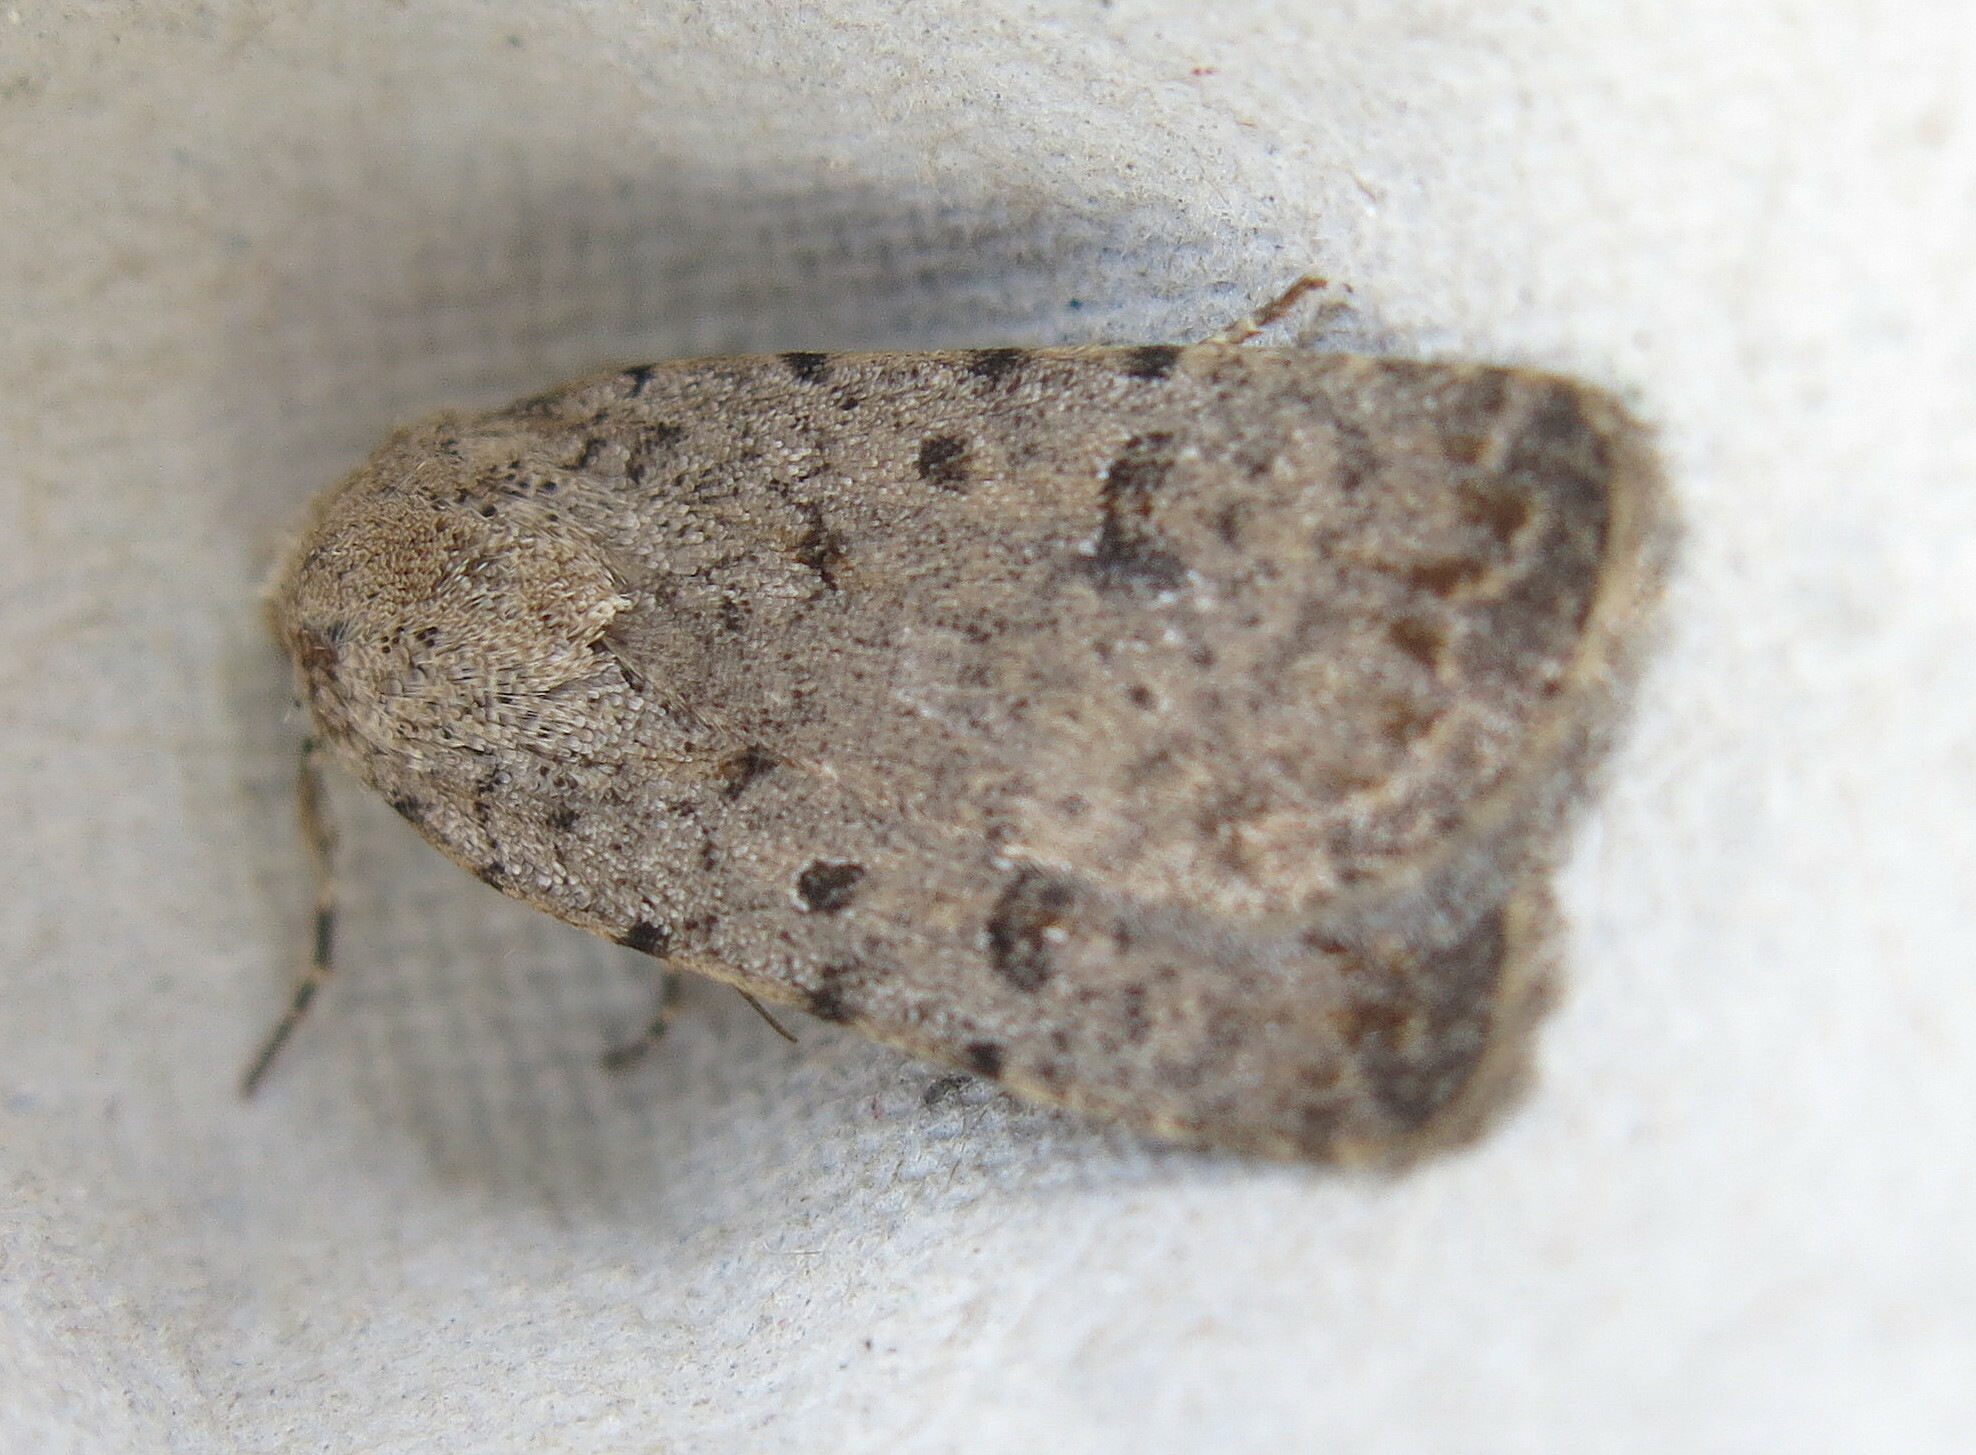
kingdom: Animalia
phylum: Arthropoda
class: Insecta
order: Lepidoptera
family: Noctuidae
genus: Caradrina
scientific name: Caradrina clavipalpis
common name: Pale mottled willow
